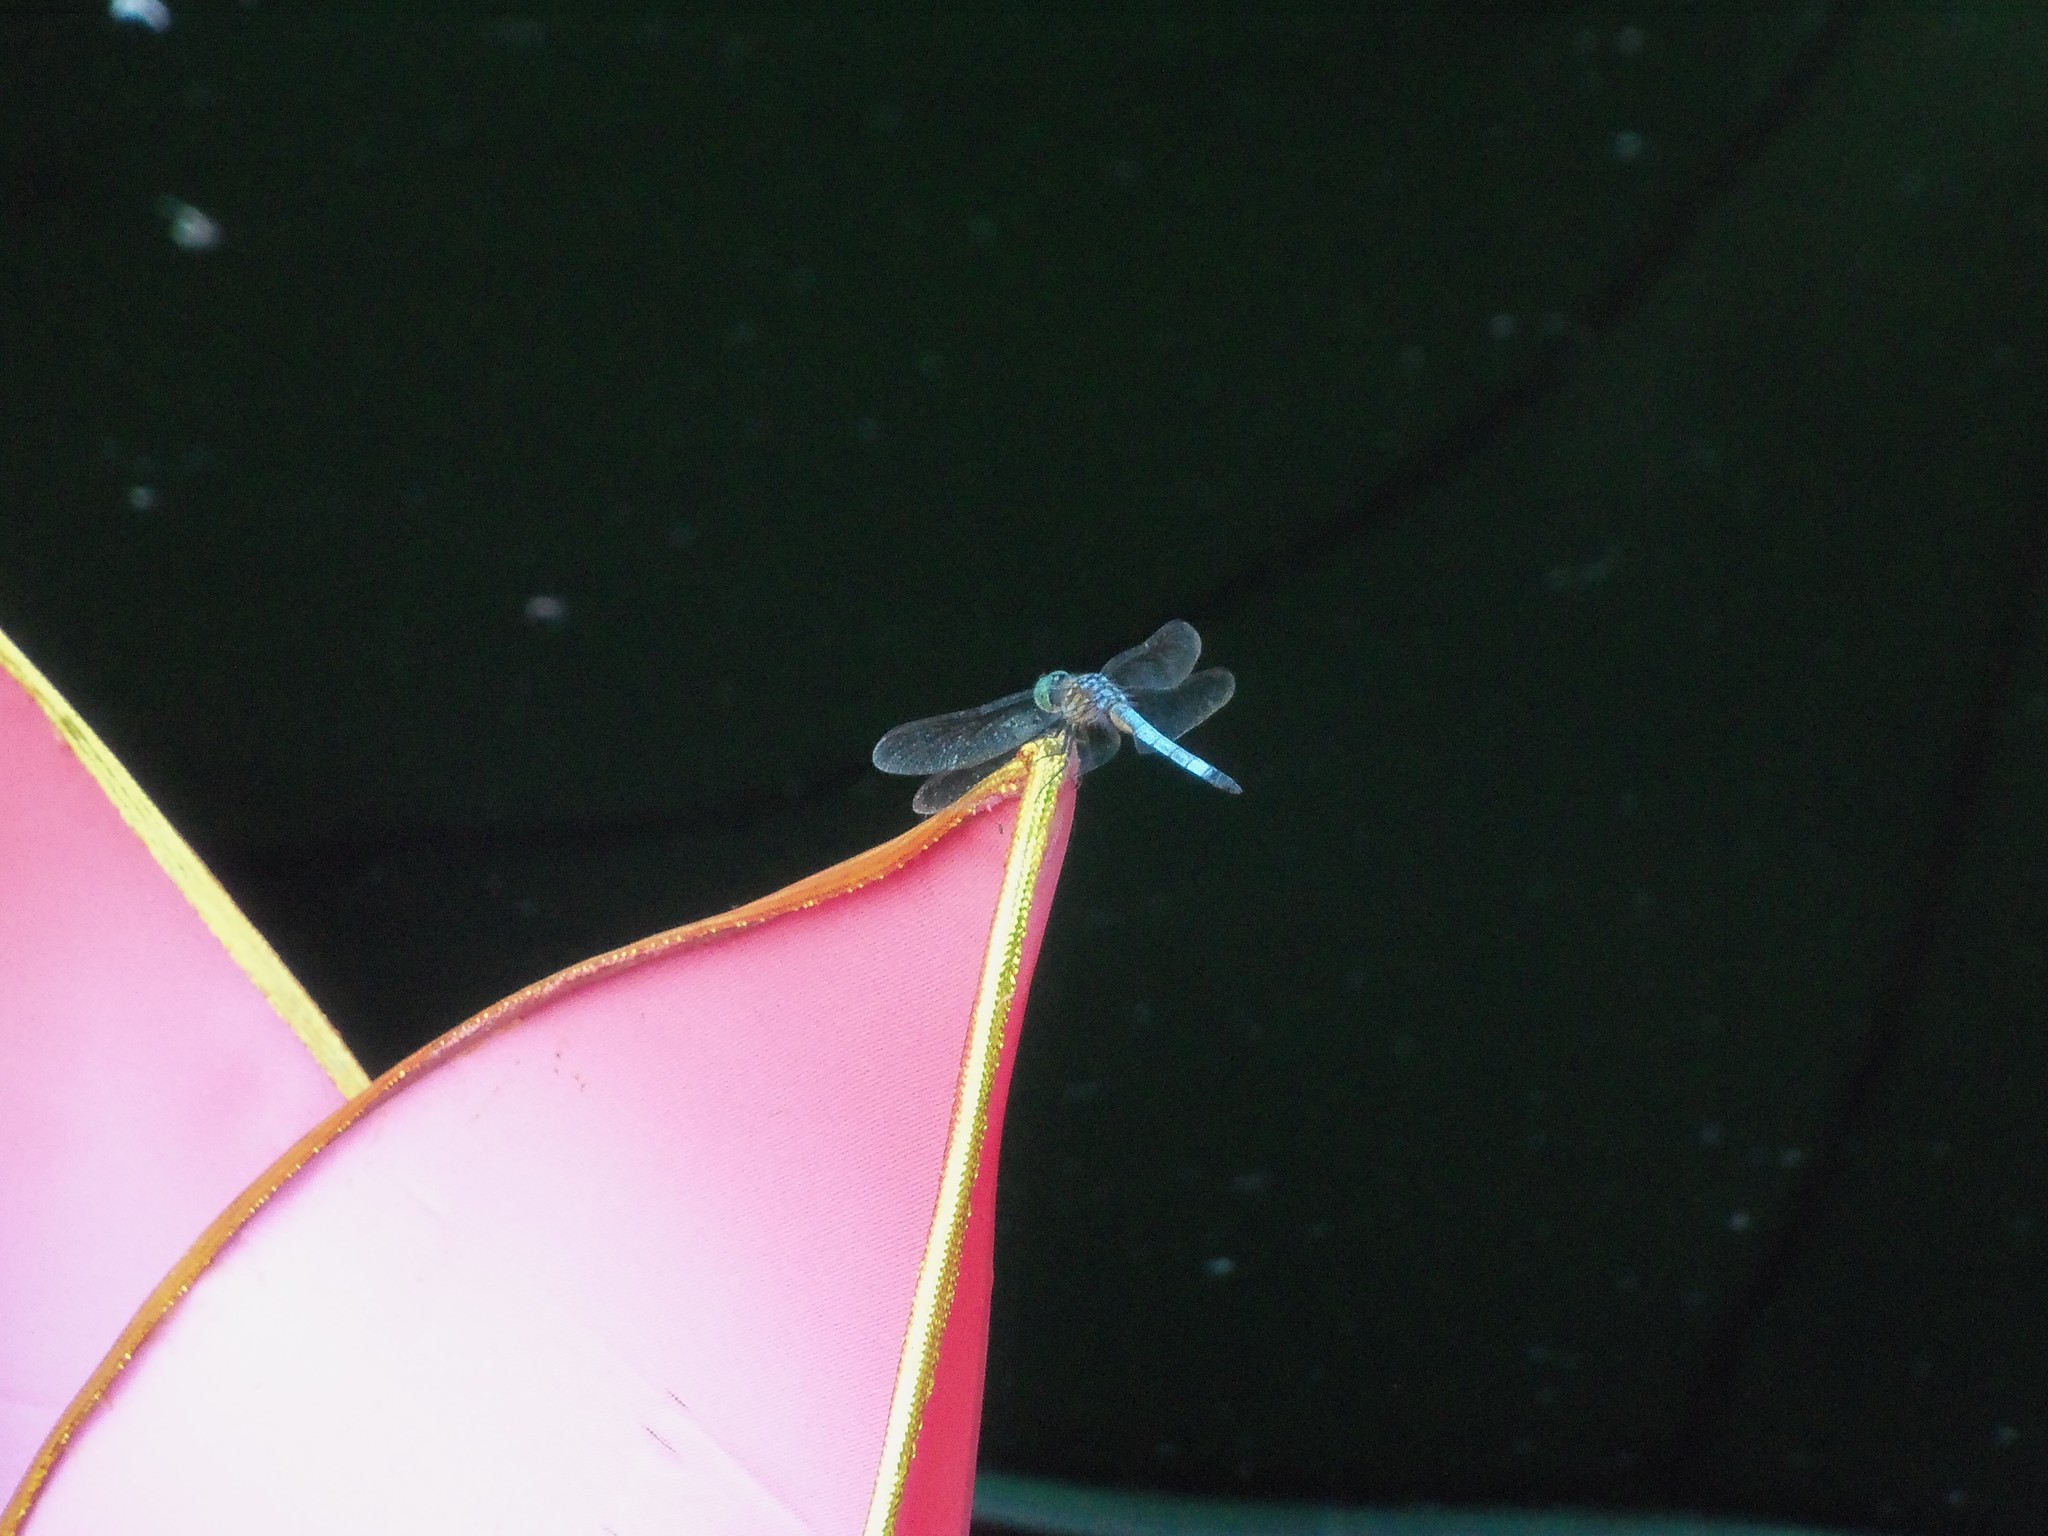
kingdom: Animalia
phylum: Arthropoda
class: Insecta
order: Odonata
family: Libellulidae
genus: Pachydiplax
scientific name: Pachydiplax longipennis
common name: Blue dasher
